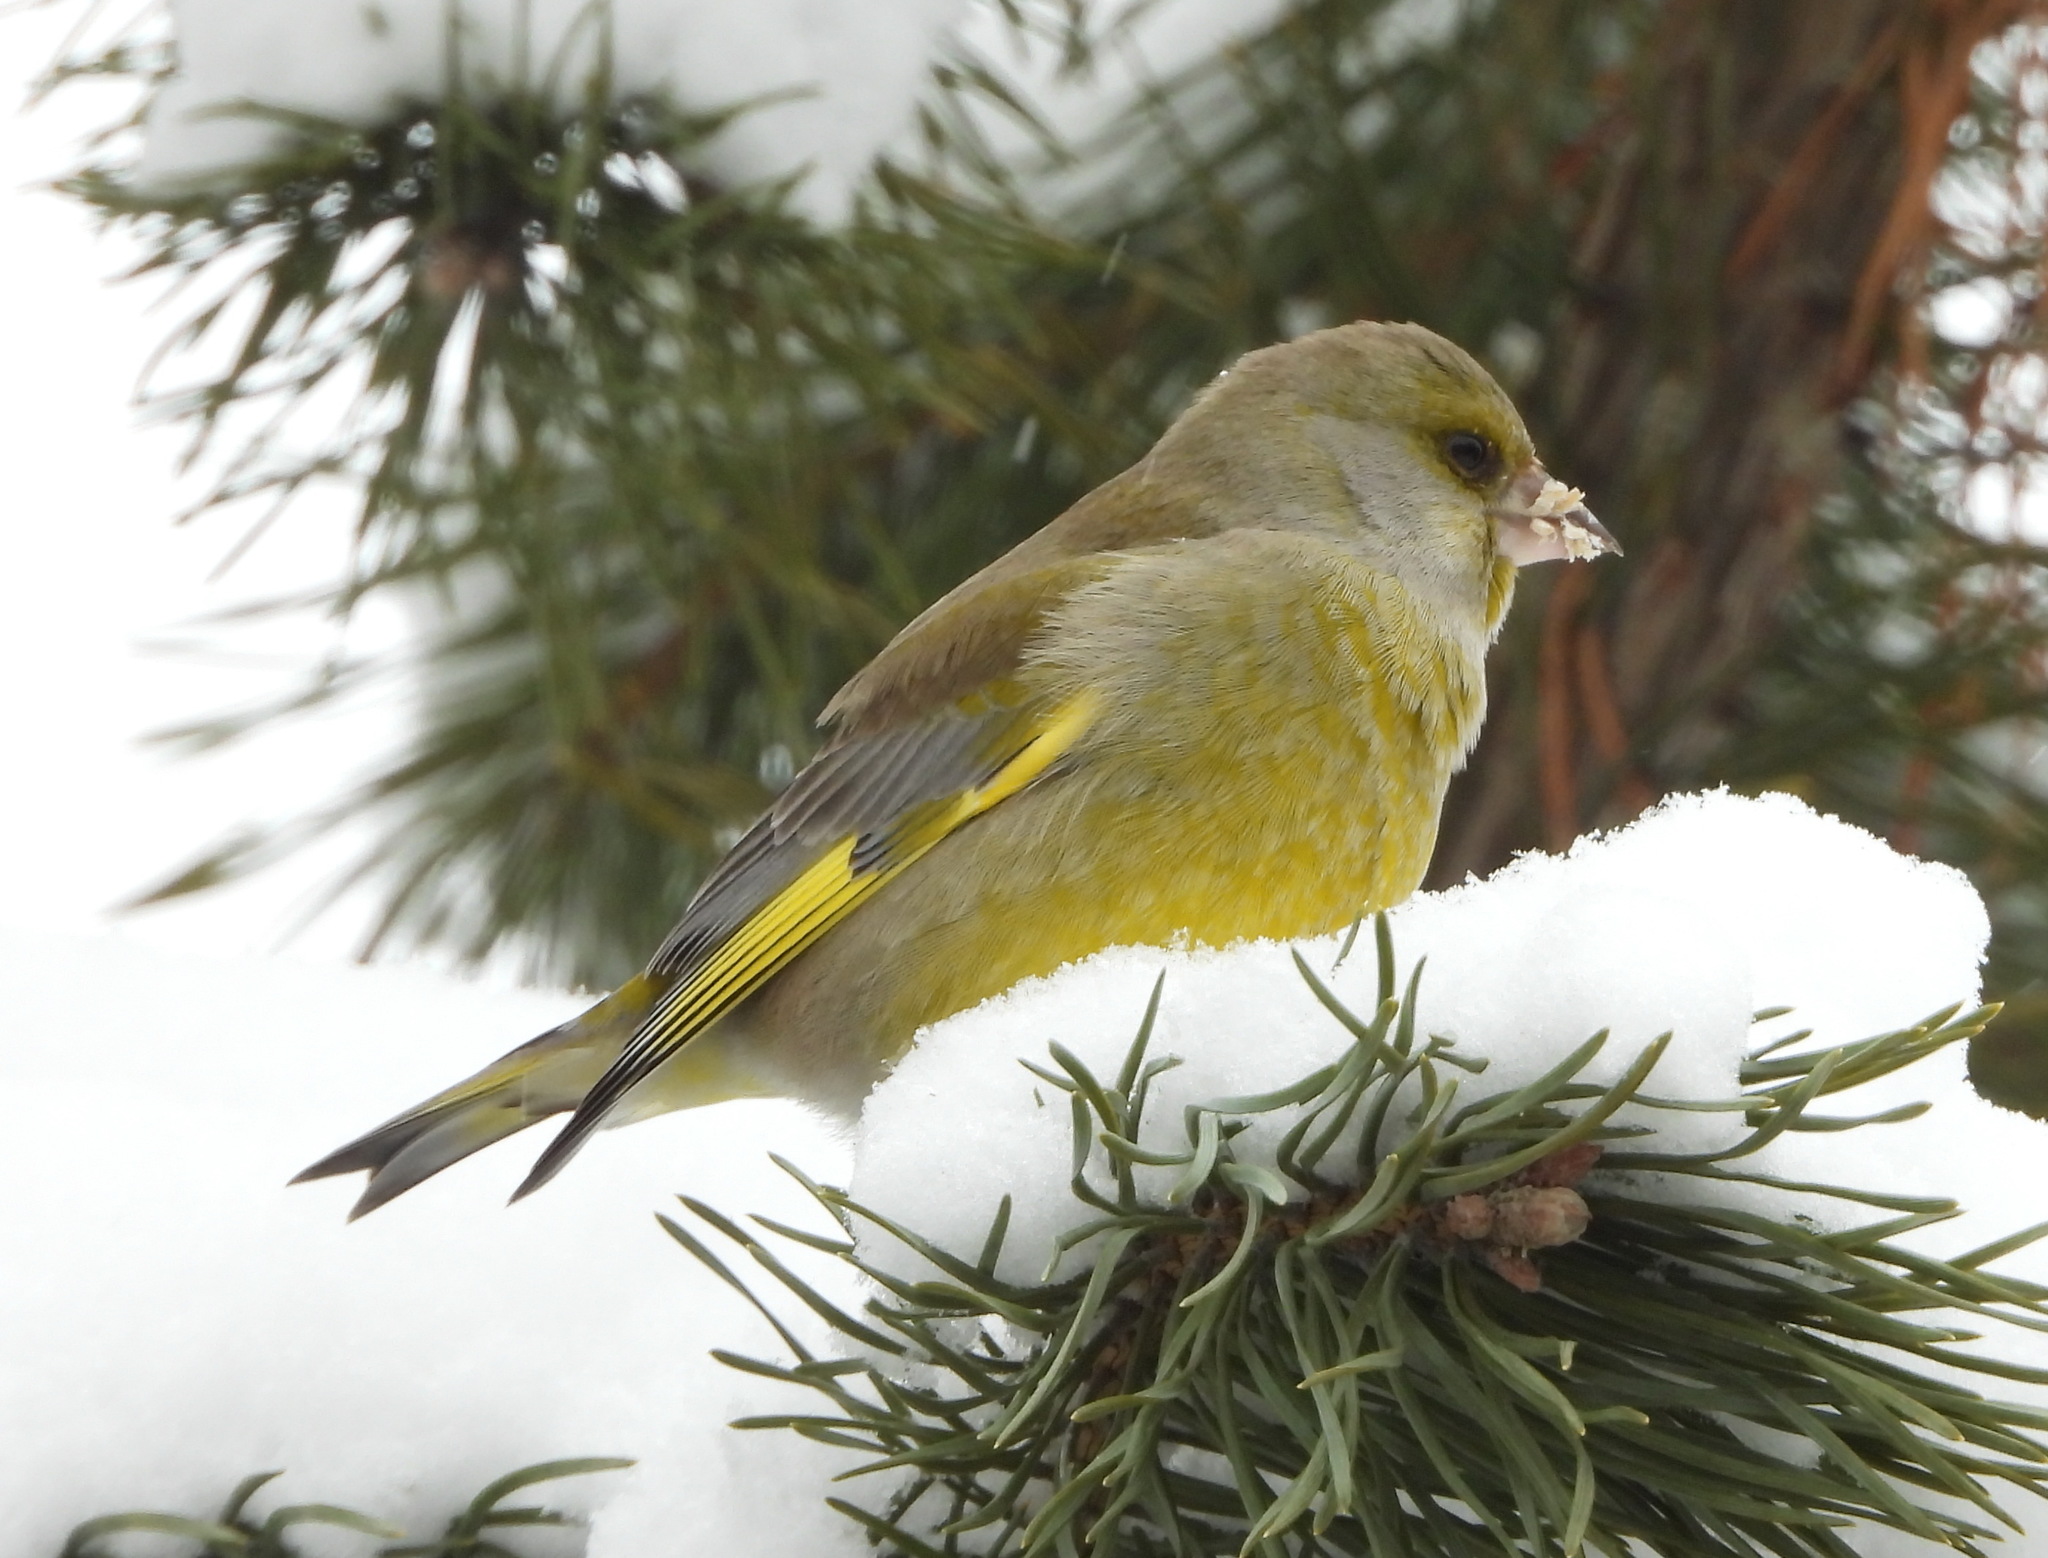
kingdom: Plantae
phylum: Tracheophyta
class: Liliopsida
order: Poales
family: Poaceae
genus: Chloris
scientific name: Chloris chloris
